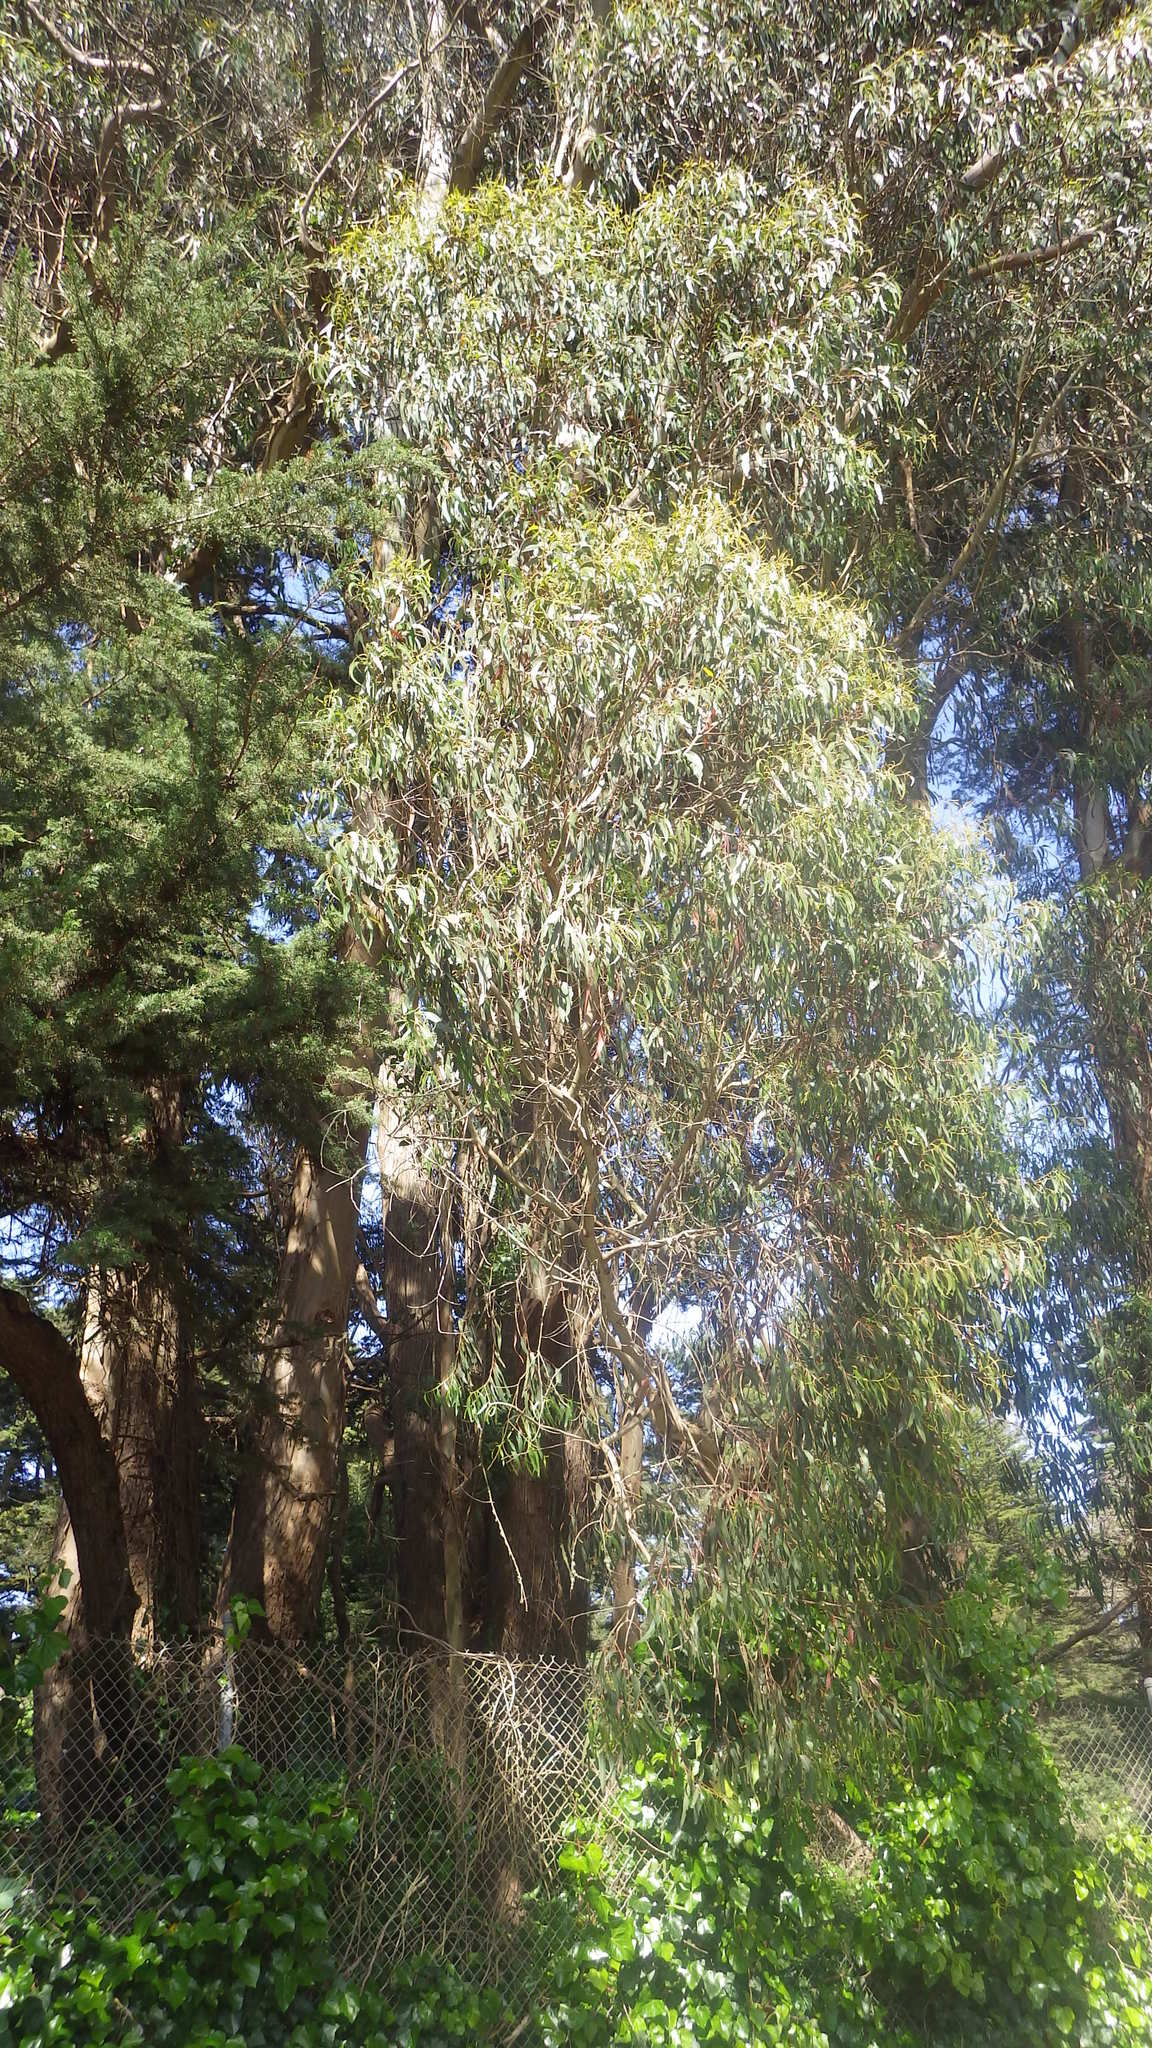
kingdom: Plantae
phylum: Tracheophyta
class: Magnoliopsida
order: Myrtales
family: Myrtaceae
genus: Eucalyptus
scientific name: Eucalyptus globulus
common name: Southern blue-gum
